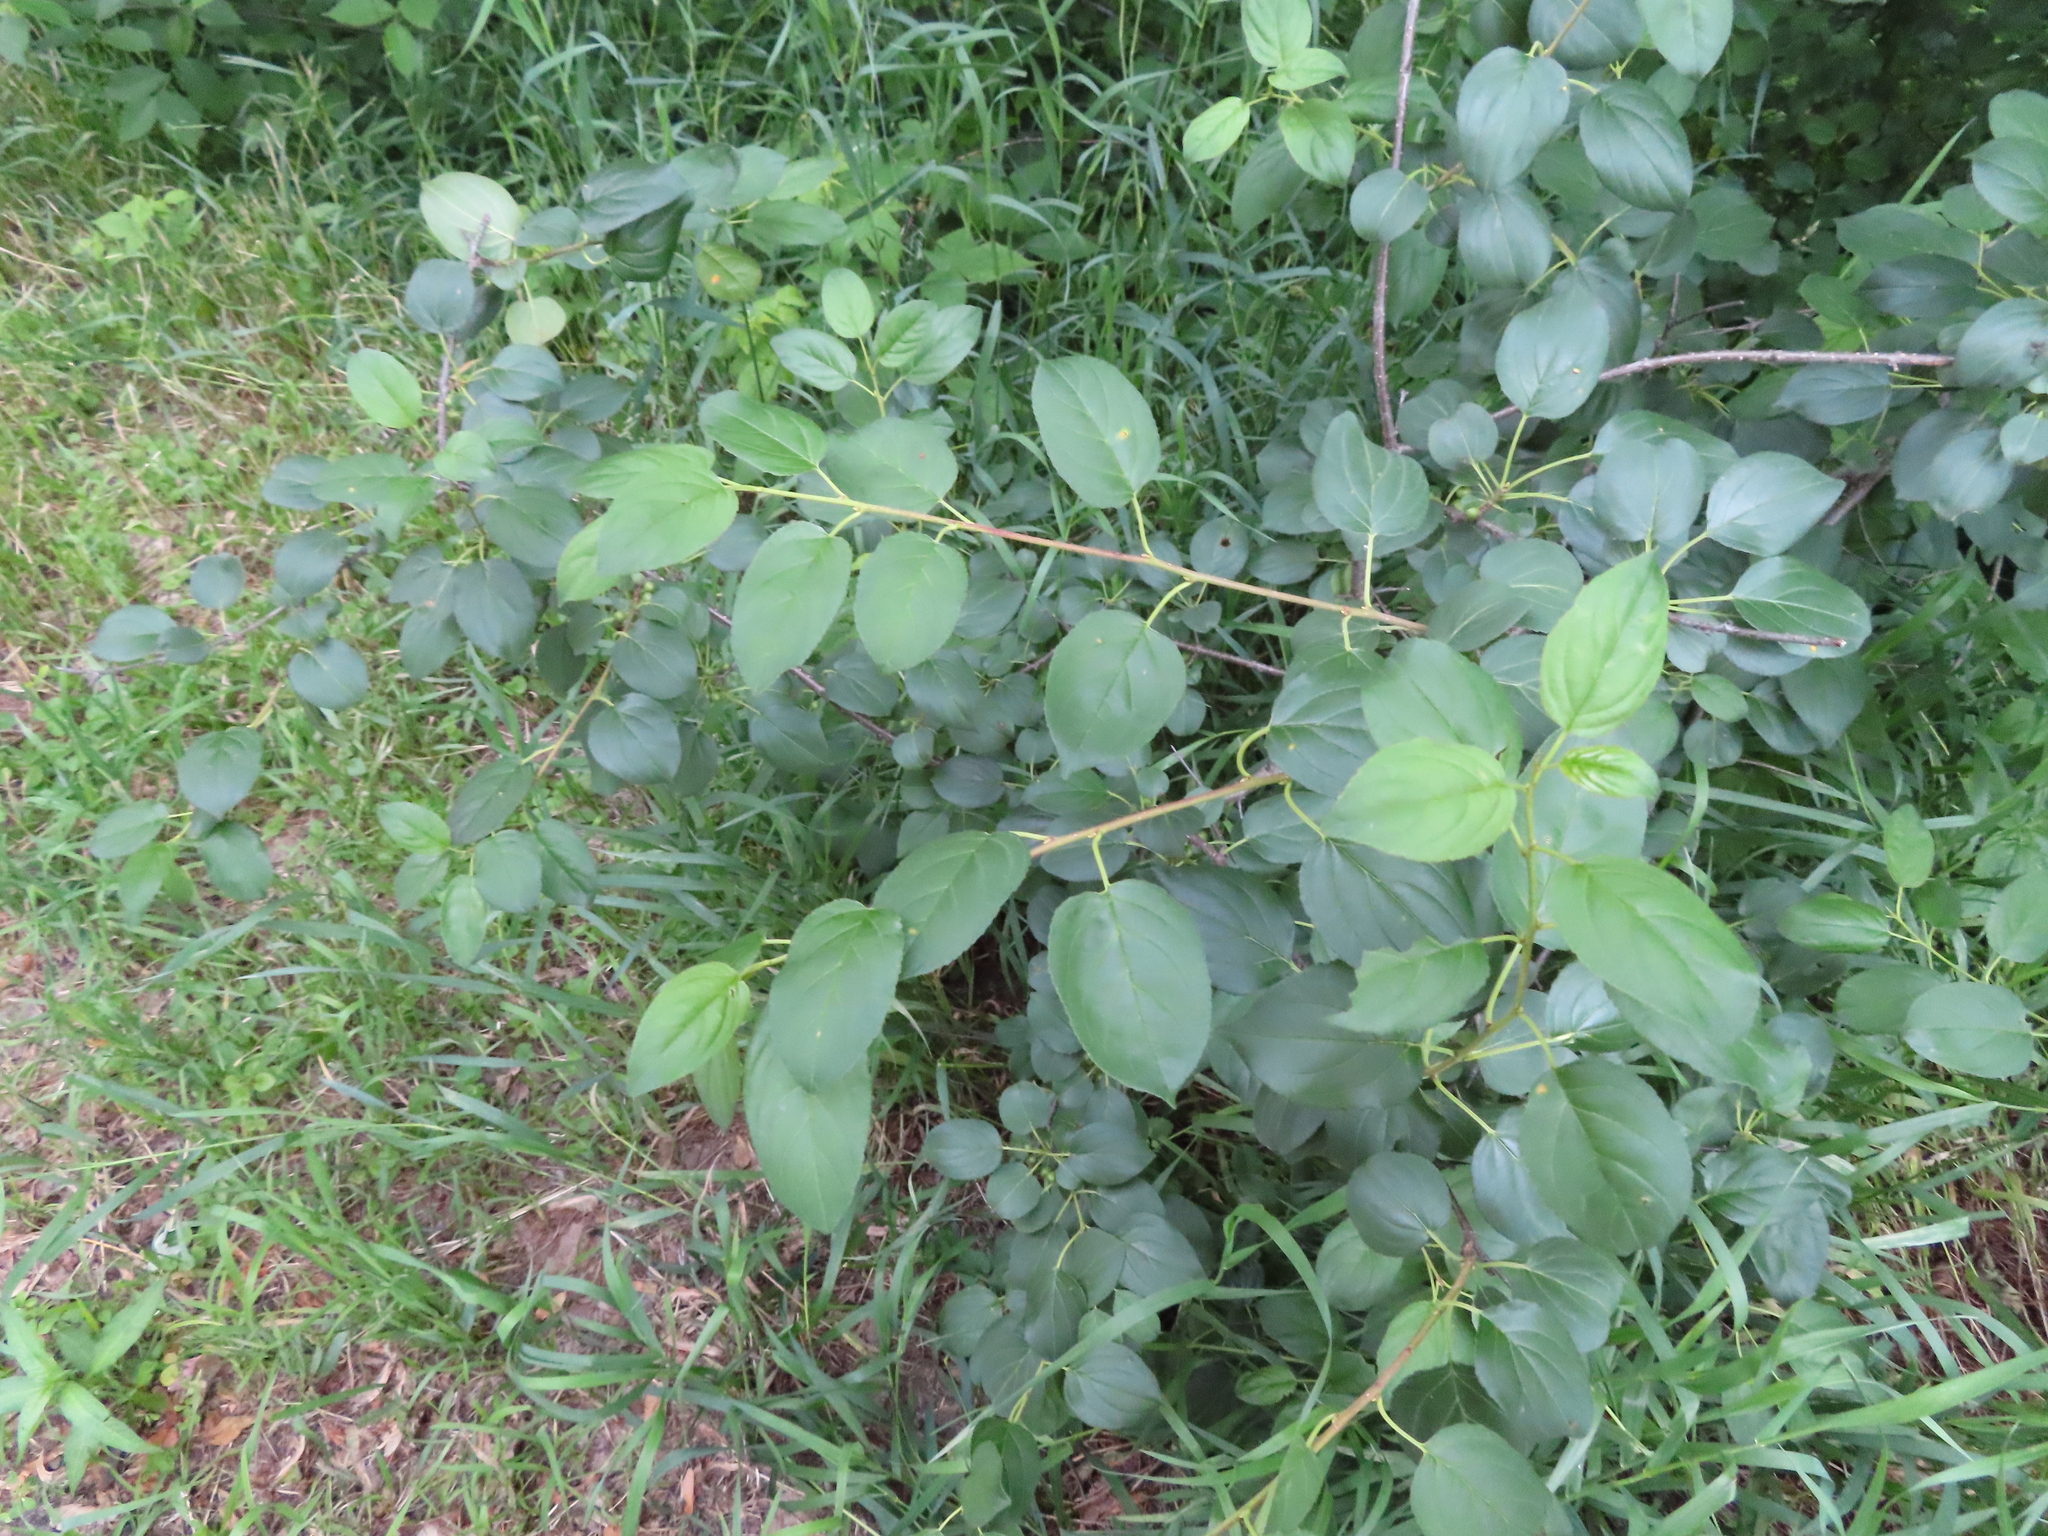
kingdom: Plantae
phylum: Tracheophyta
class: Magnoliopsida
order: Rosales
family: Rhamnaceae
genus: Rhamnus
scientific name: Rhamnus cathartica
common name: Common buckthorn
